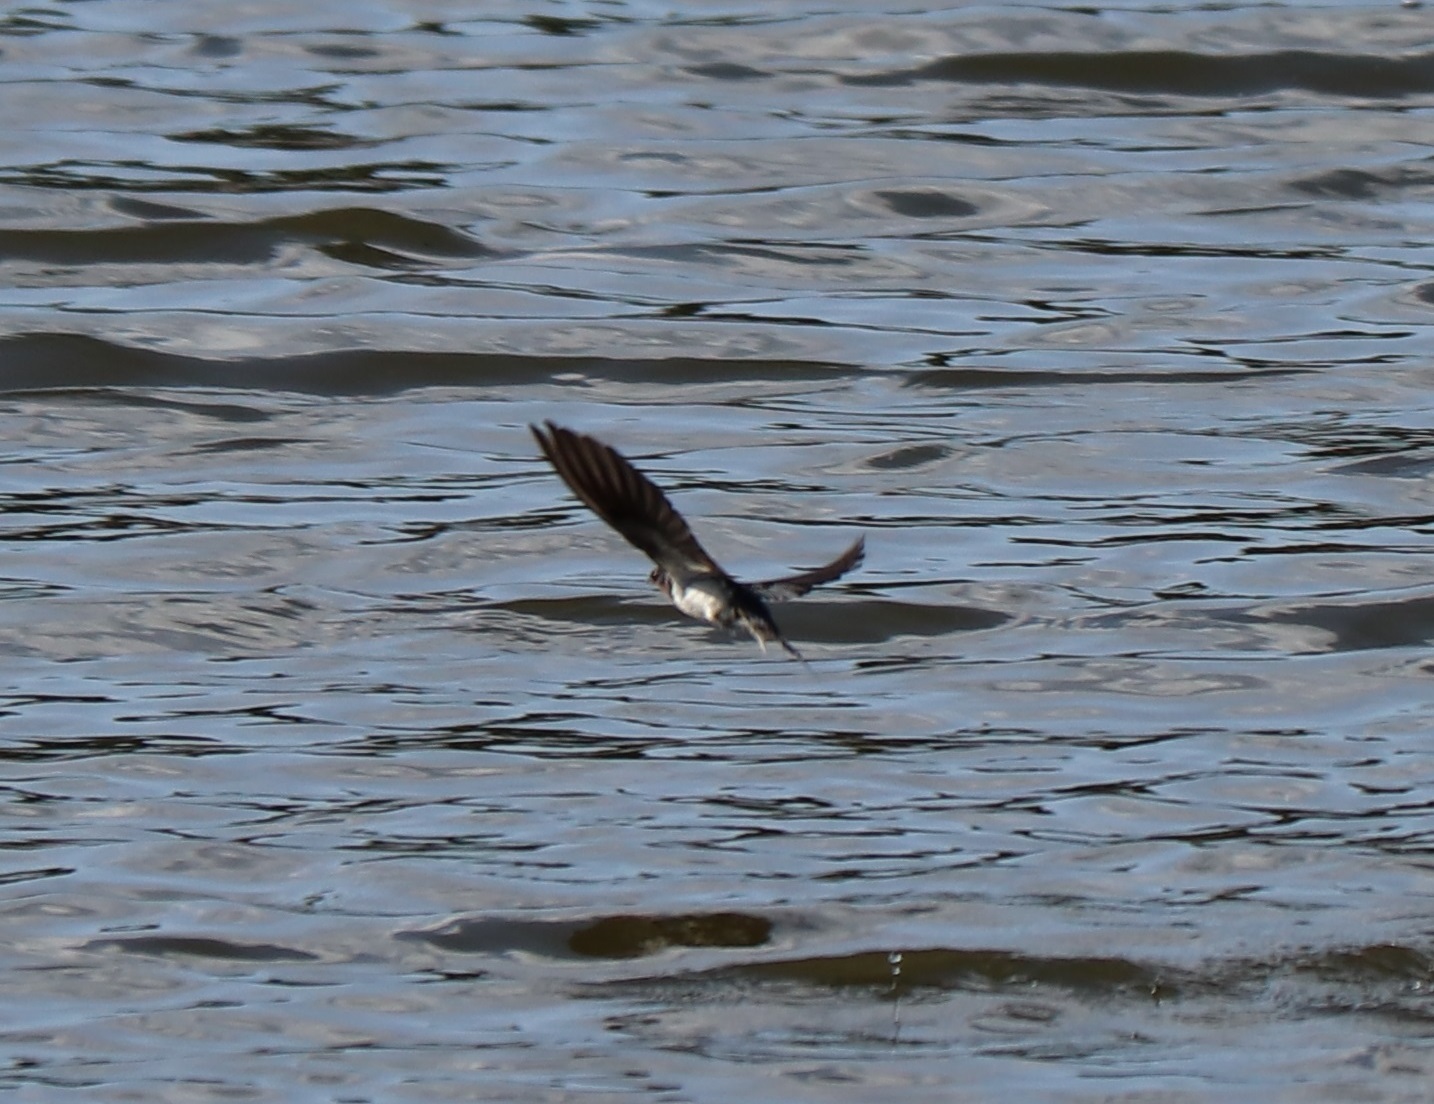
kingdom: Animalia
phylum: Chordata
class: Aves
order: Passeriformes
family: Hirundinidae
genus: Hirundo
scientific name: Hirundo rustica
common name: Barn swallow
